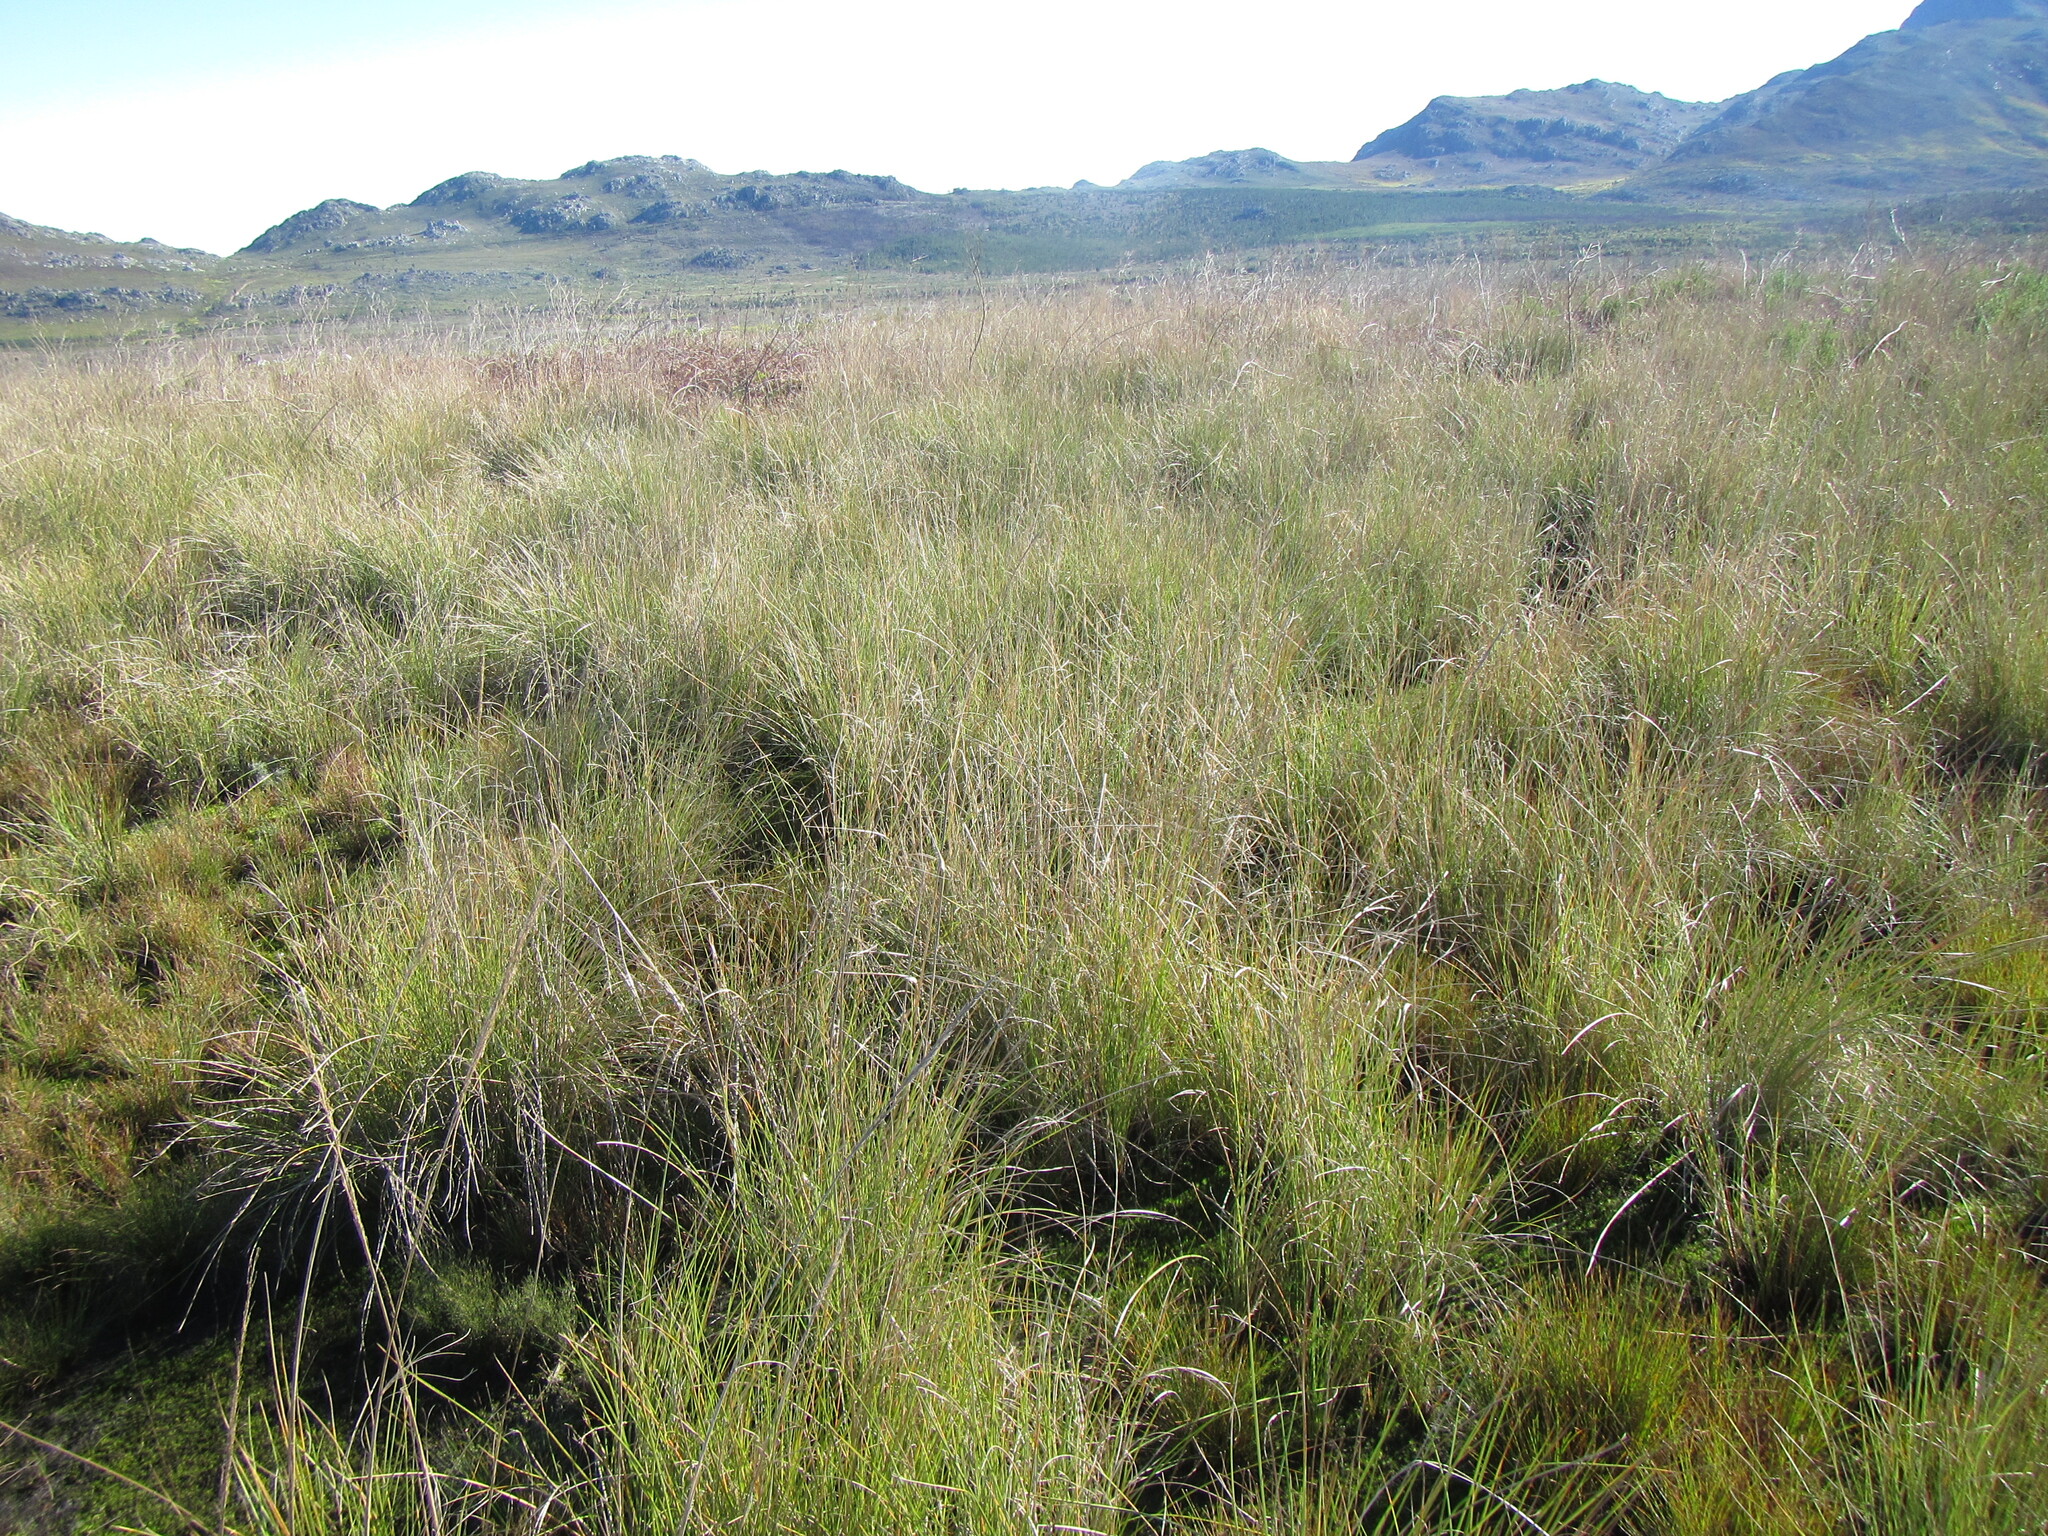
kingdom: Plantae
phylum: Tracheophyta
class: Liliopsida
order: Poales
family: Poaceae
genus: Capeochloa
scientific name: Capeochloa cincta
